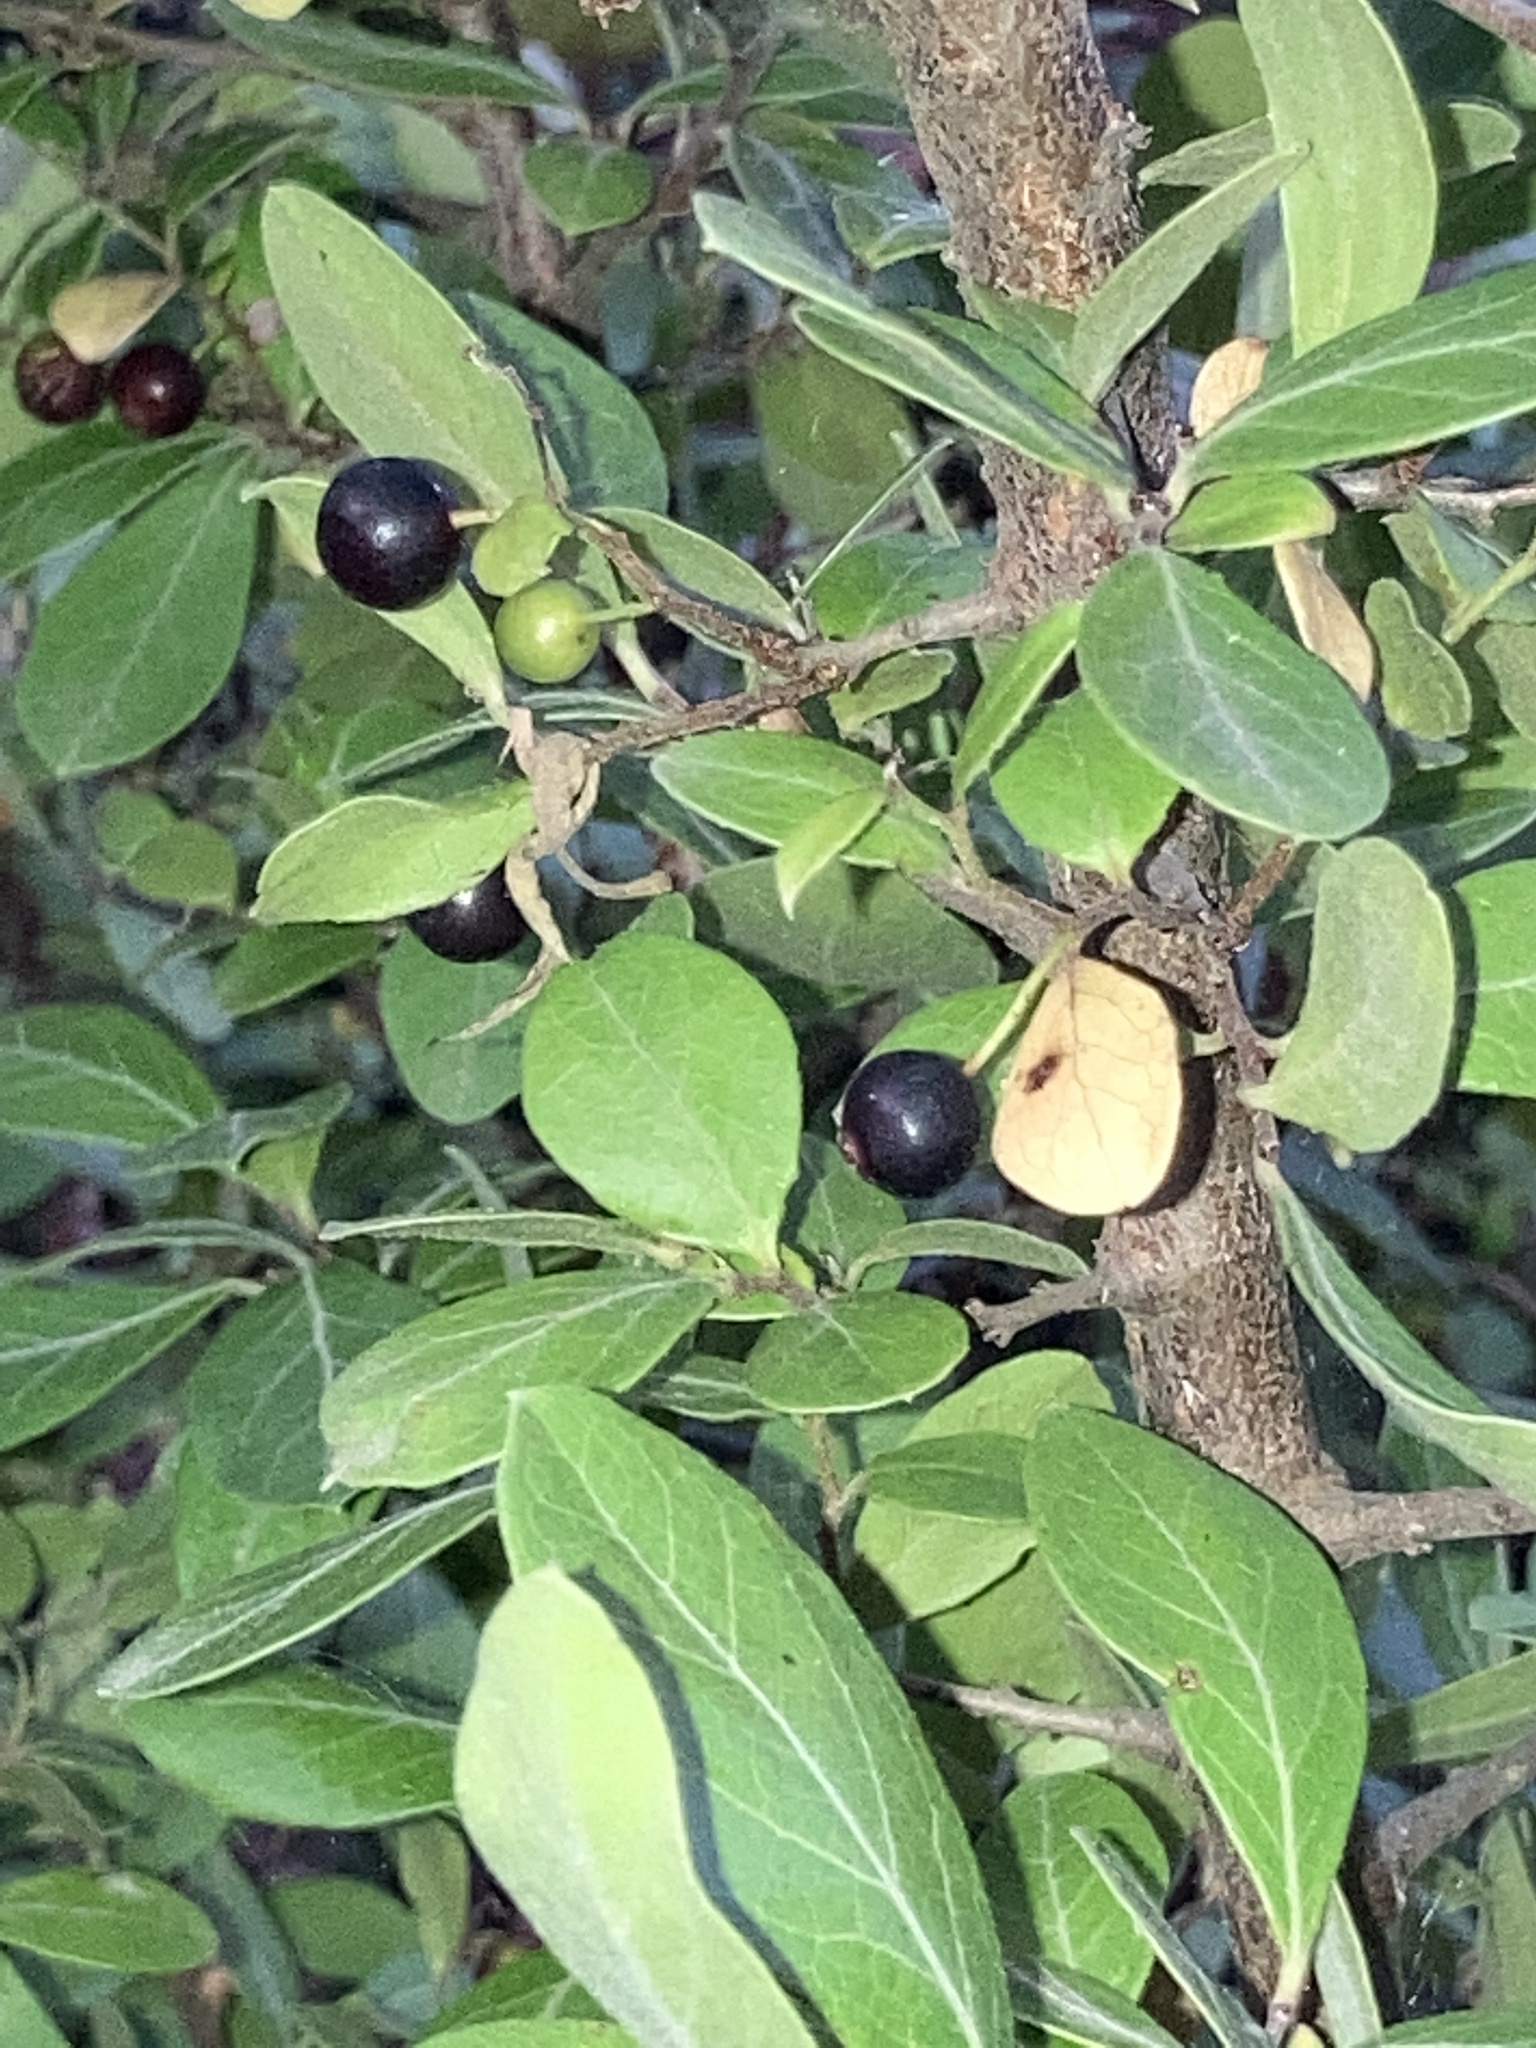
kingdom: Plantae
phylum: Tracheophyta
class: Magnoliopsida
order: Ericales
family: Ericaceae
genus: Vaccinium
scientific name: Vaccinium arboreum
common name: Farkleberry
